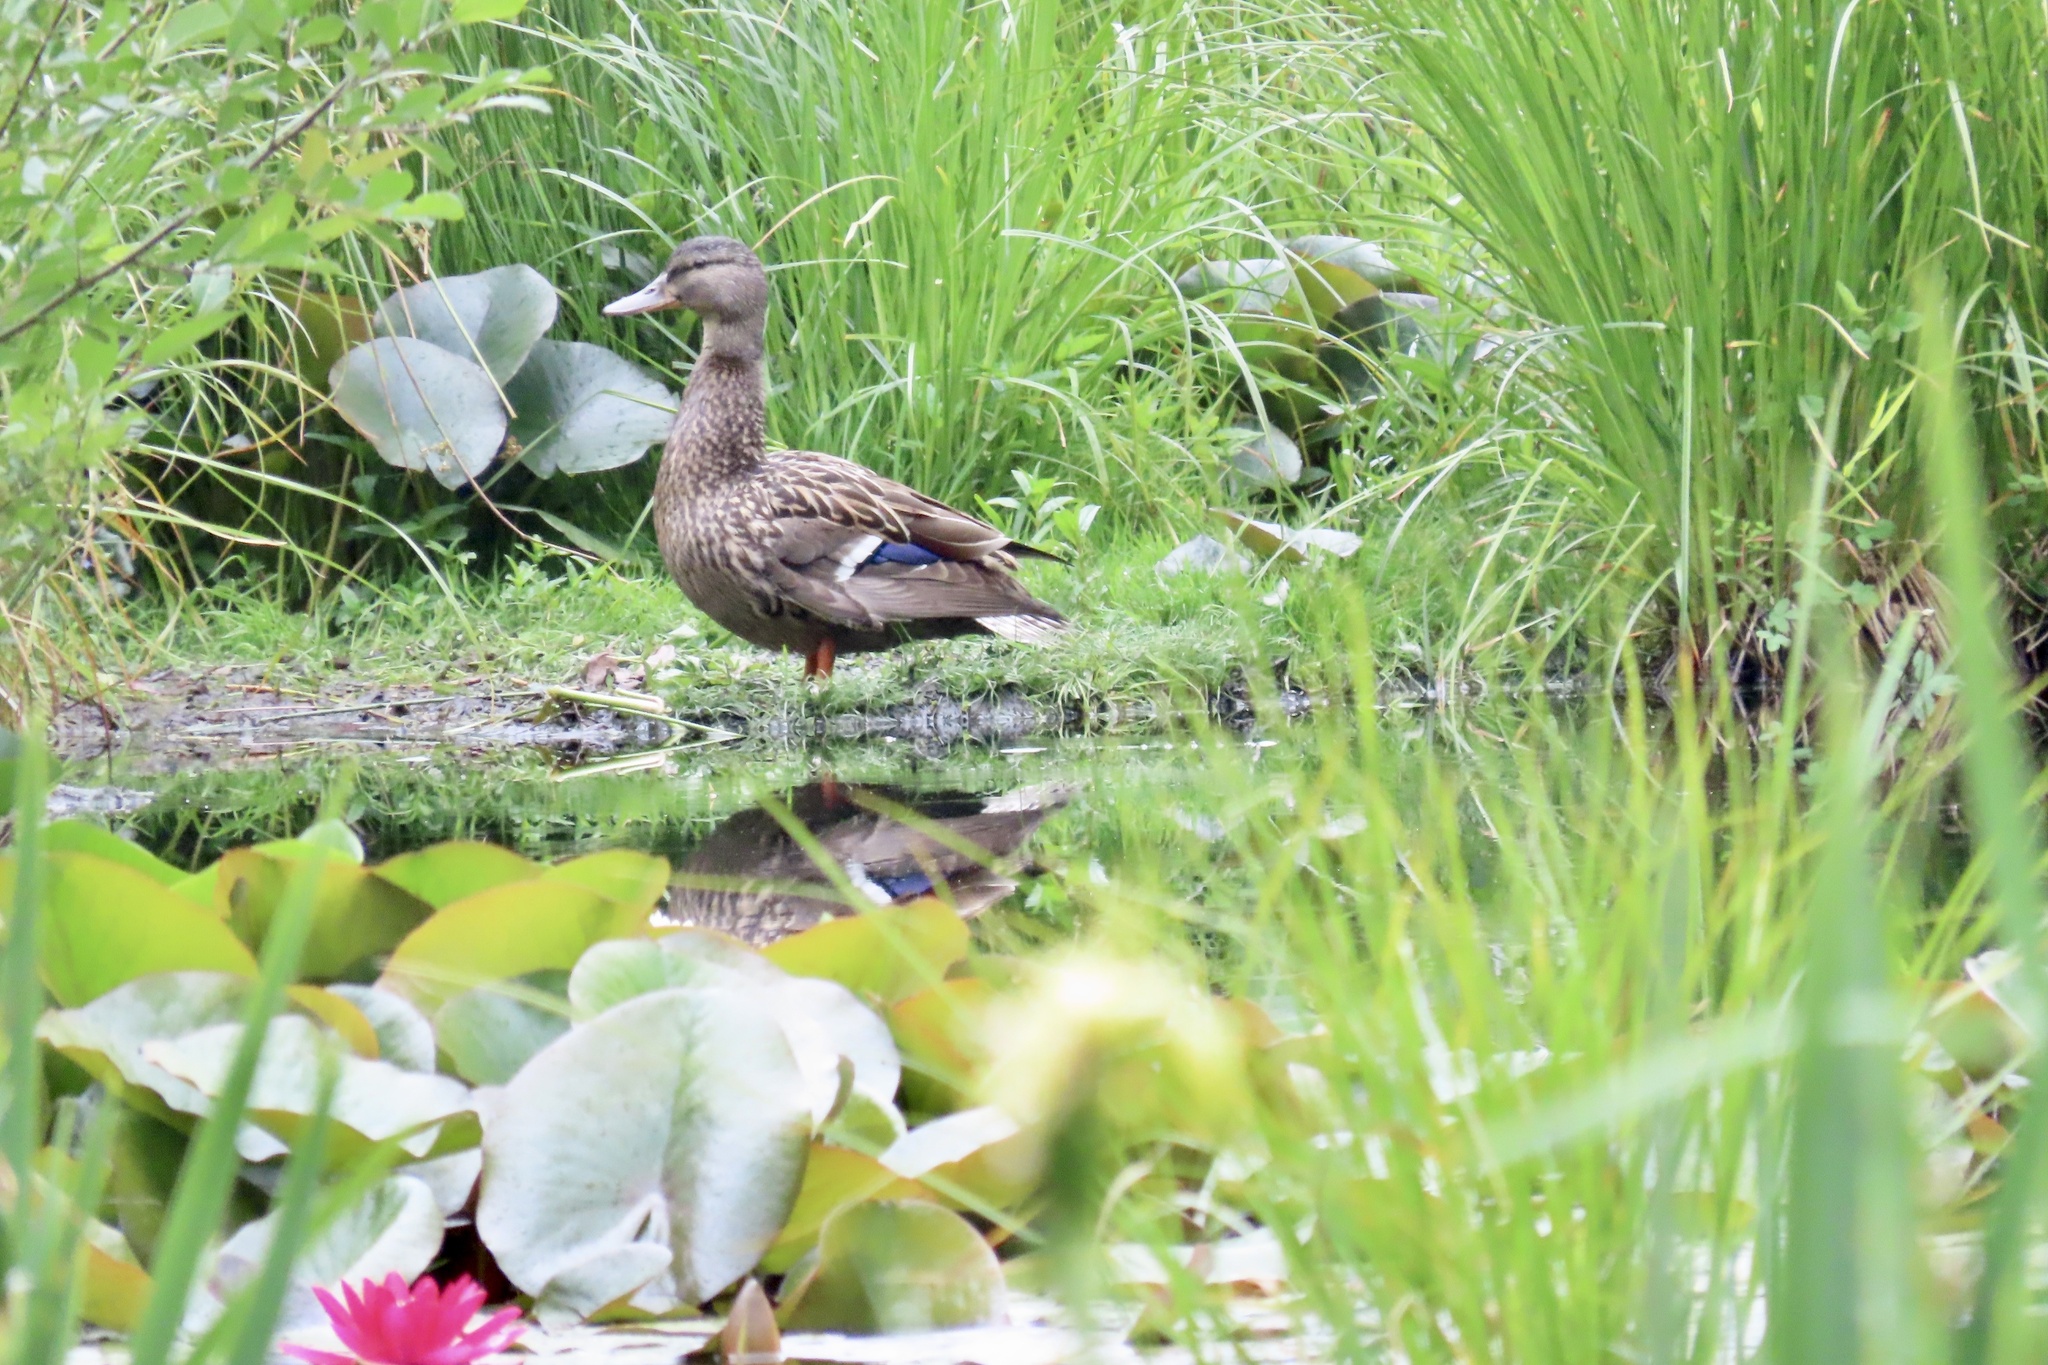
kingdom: Animalia
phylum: Chordata
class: Aves
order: Anseriformes
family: Anatidae
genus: Anas
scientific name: Anas platyrhynchos
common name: Mallard
